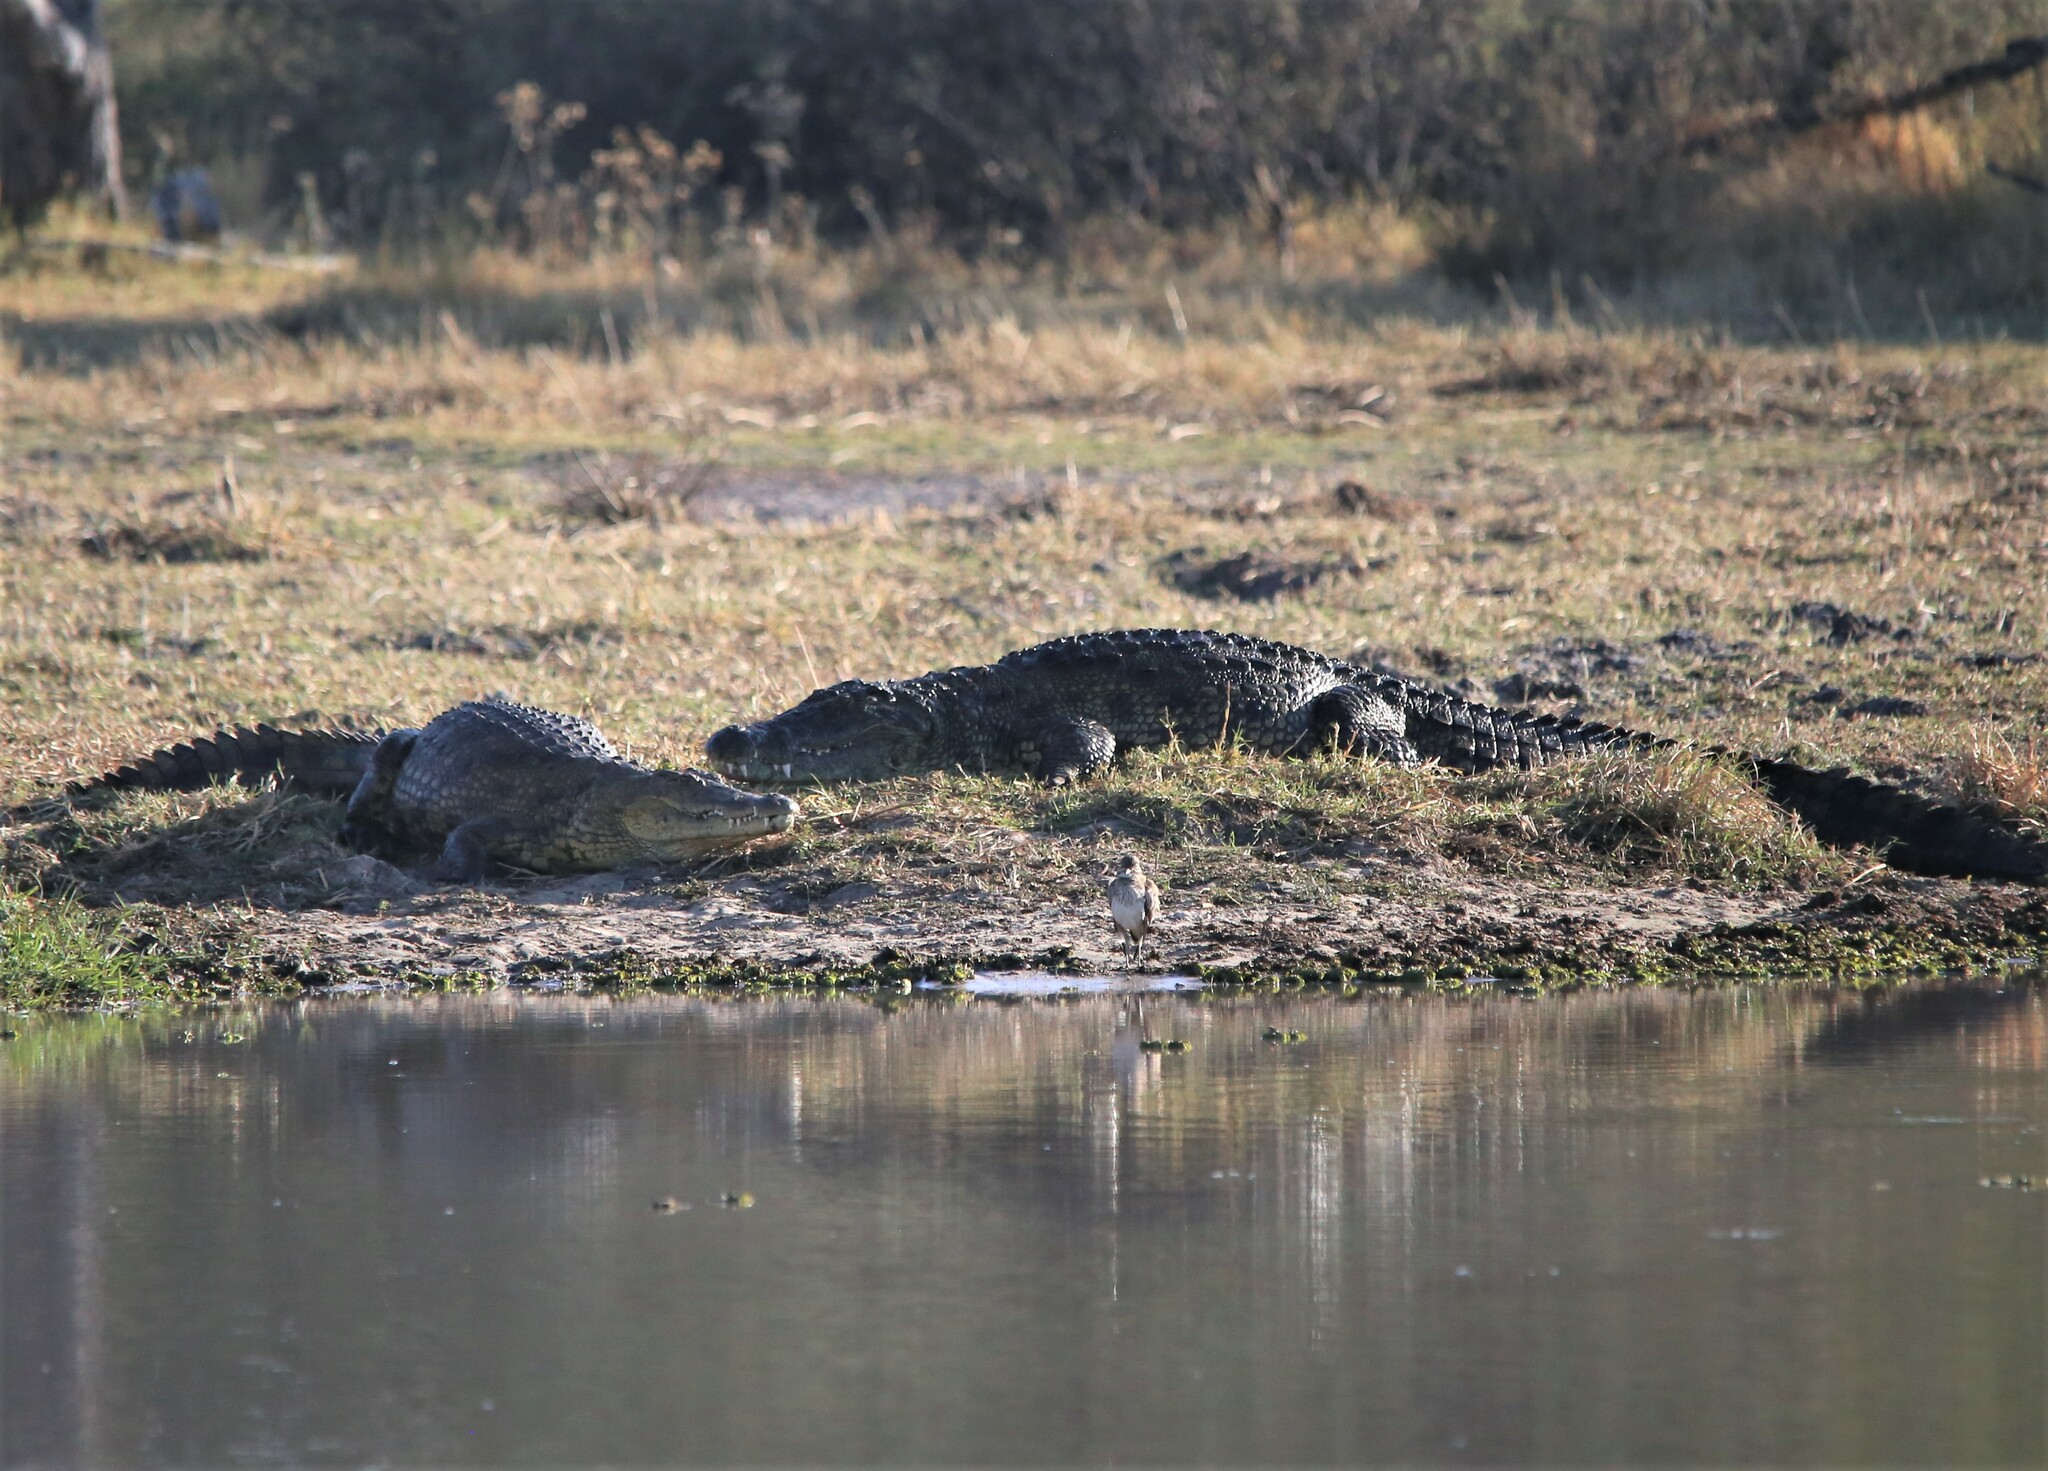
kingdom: Animalia
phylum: Chordata
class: Crocodylia
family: Crocodylidae
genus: Crocodylus
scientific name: Crocodylus niloticus
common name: Nile crocodile
